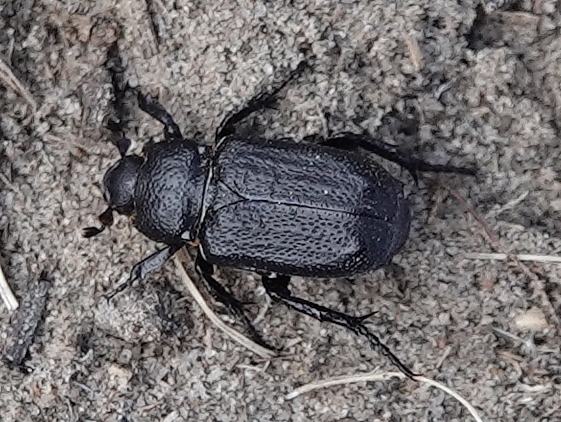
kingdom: Animalia
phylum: Arthropoda
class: Insecta
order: Coleoptera
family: Scarabaeidae
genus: Cremastocheilus
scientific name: Cremastocheilus knochi
